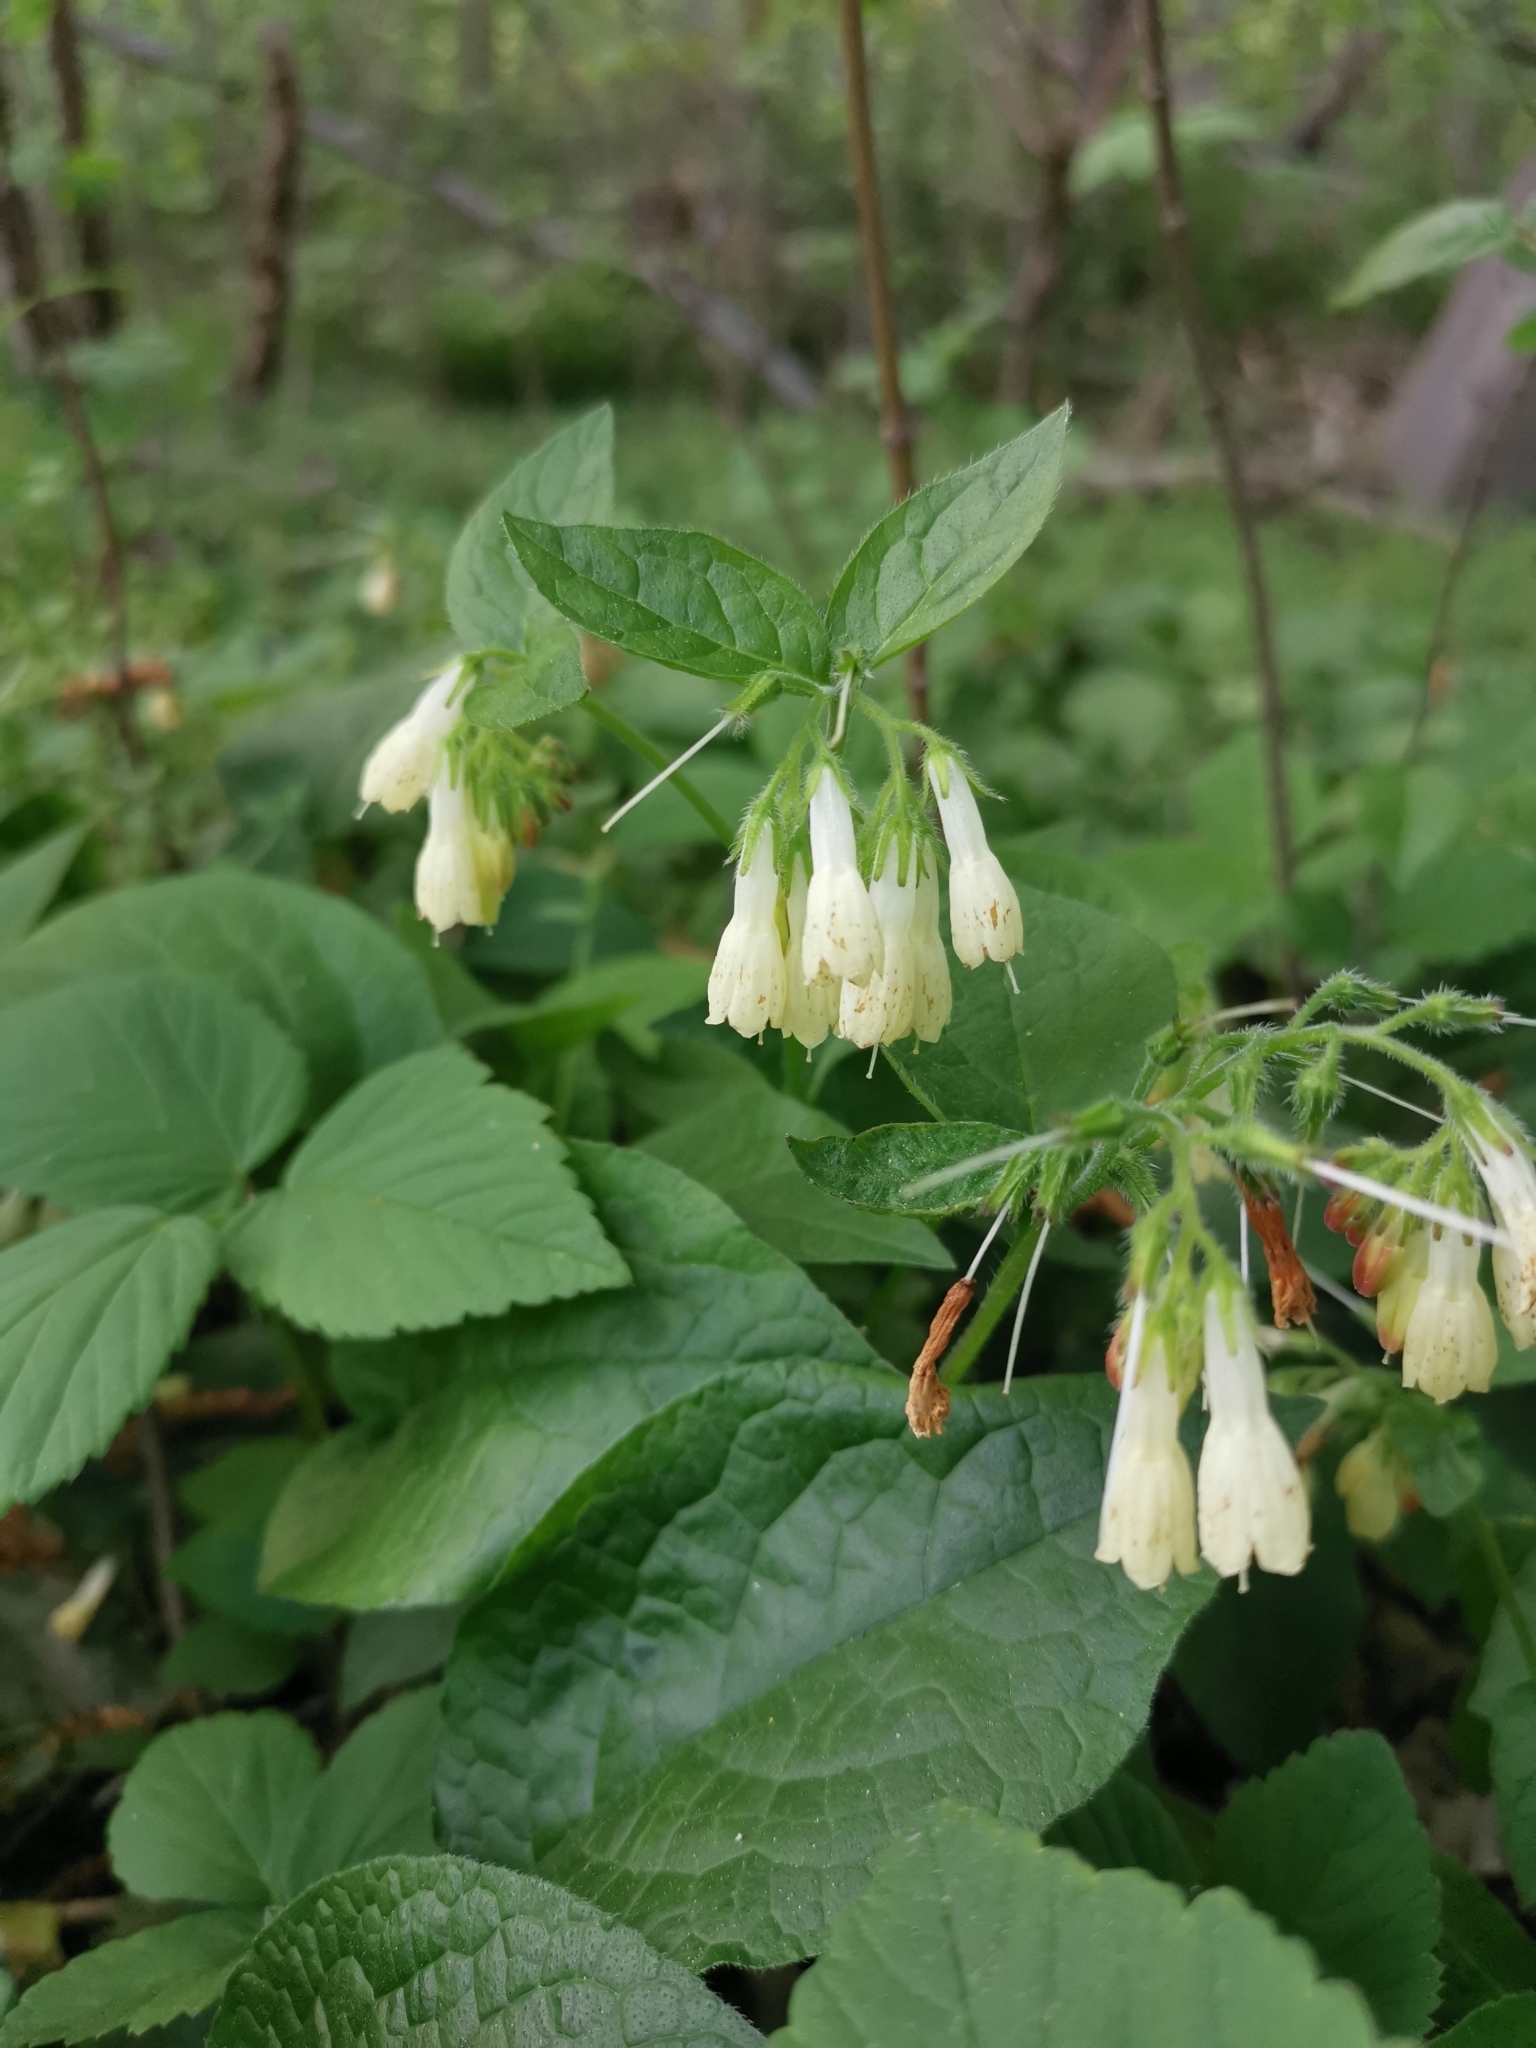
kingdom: Plantae
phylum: Tracheophyta
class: Magnoliopsida
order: Boraginales
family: Boraginaceae
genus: Symphytum
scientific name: Symphytum grandiflorum
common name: Creeping comfrey
